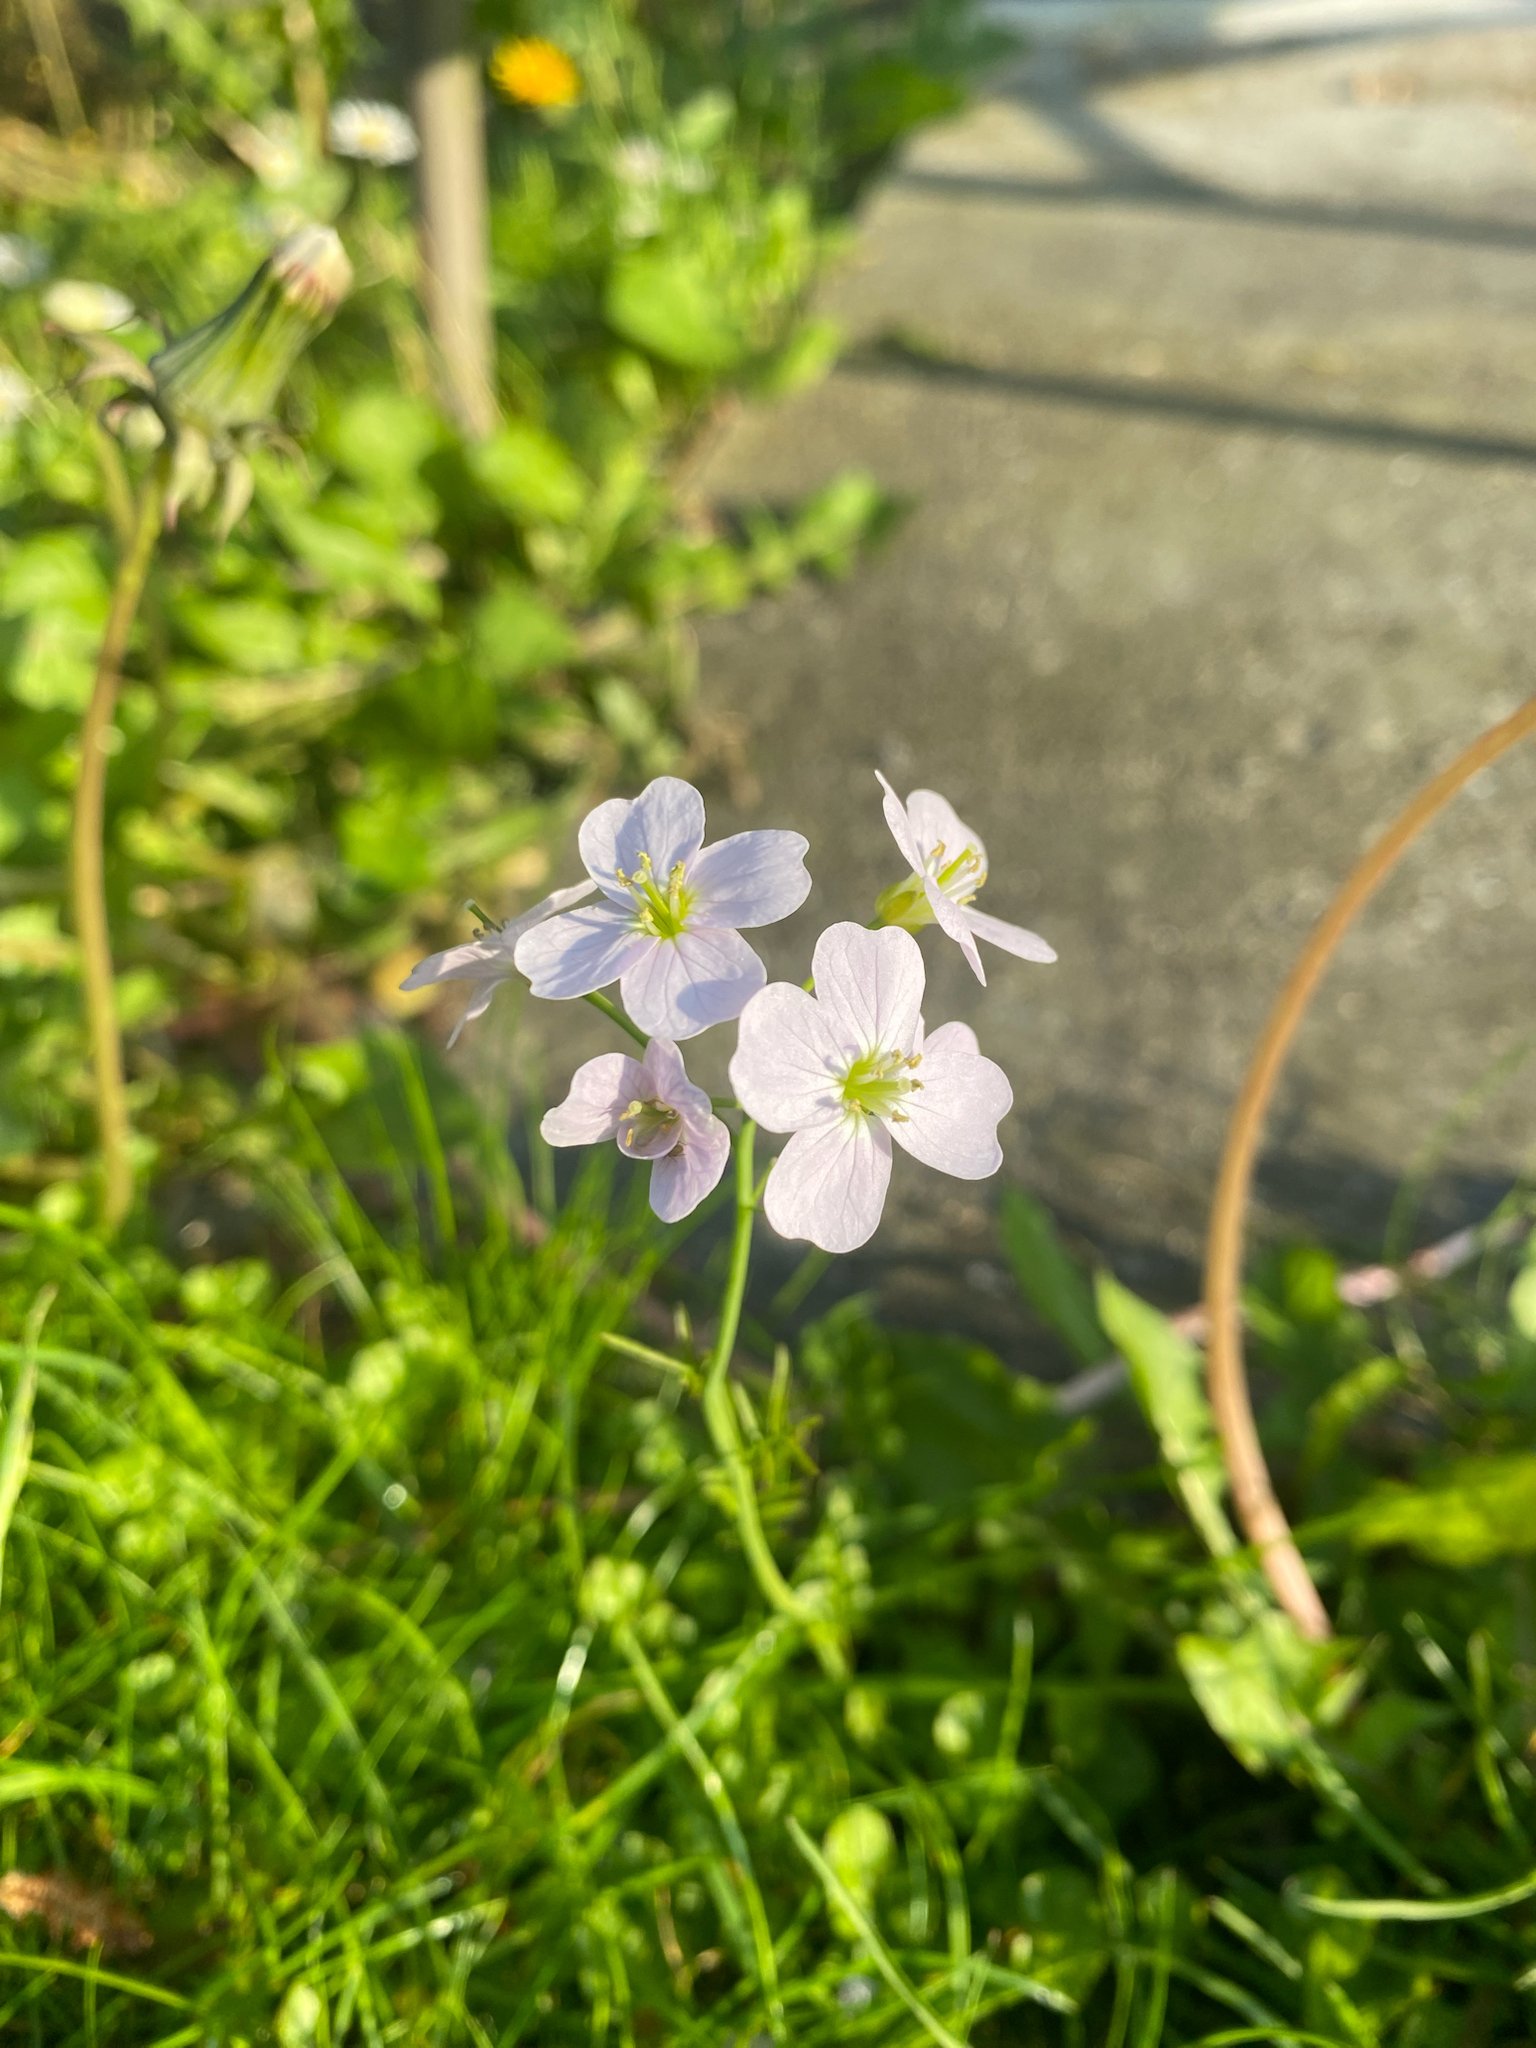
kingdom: Plantae
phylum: Tracheophyta
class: Magnoliopsida
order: Brassicales
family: Brassicaceae
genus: Cardamine
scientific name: Cardamine pratensis
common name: Cuckoo flower
